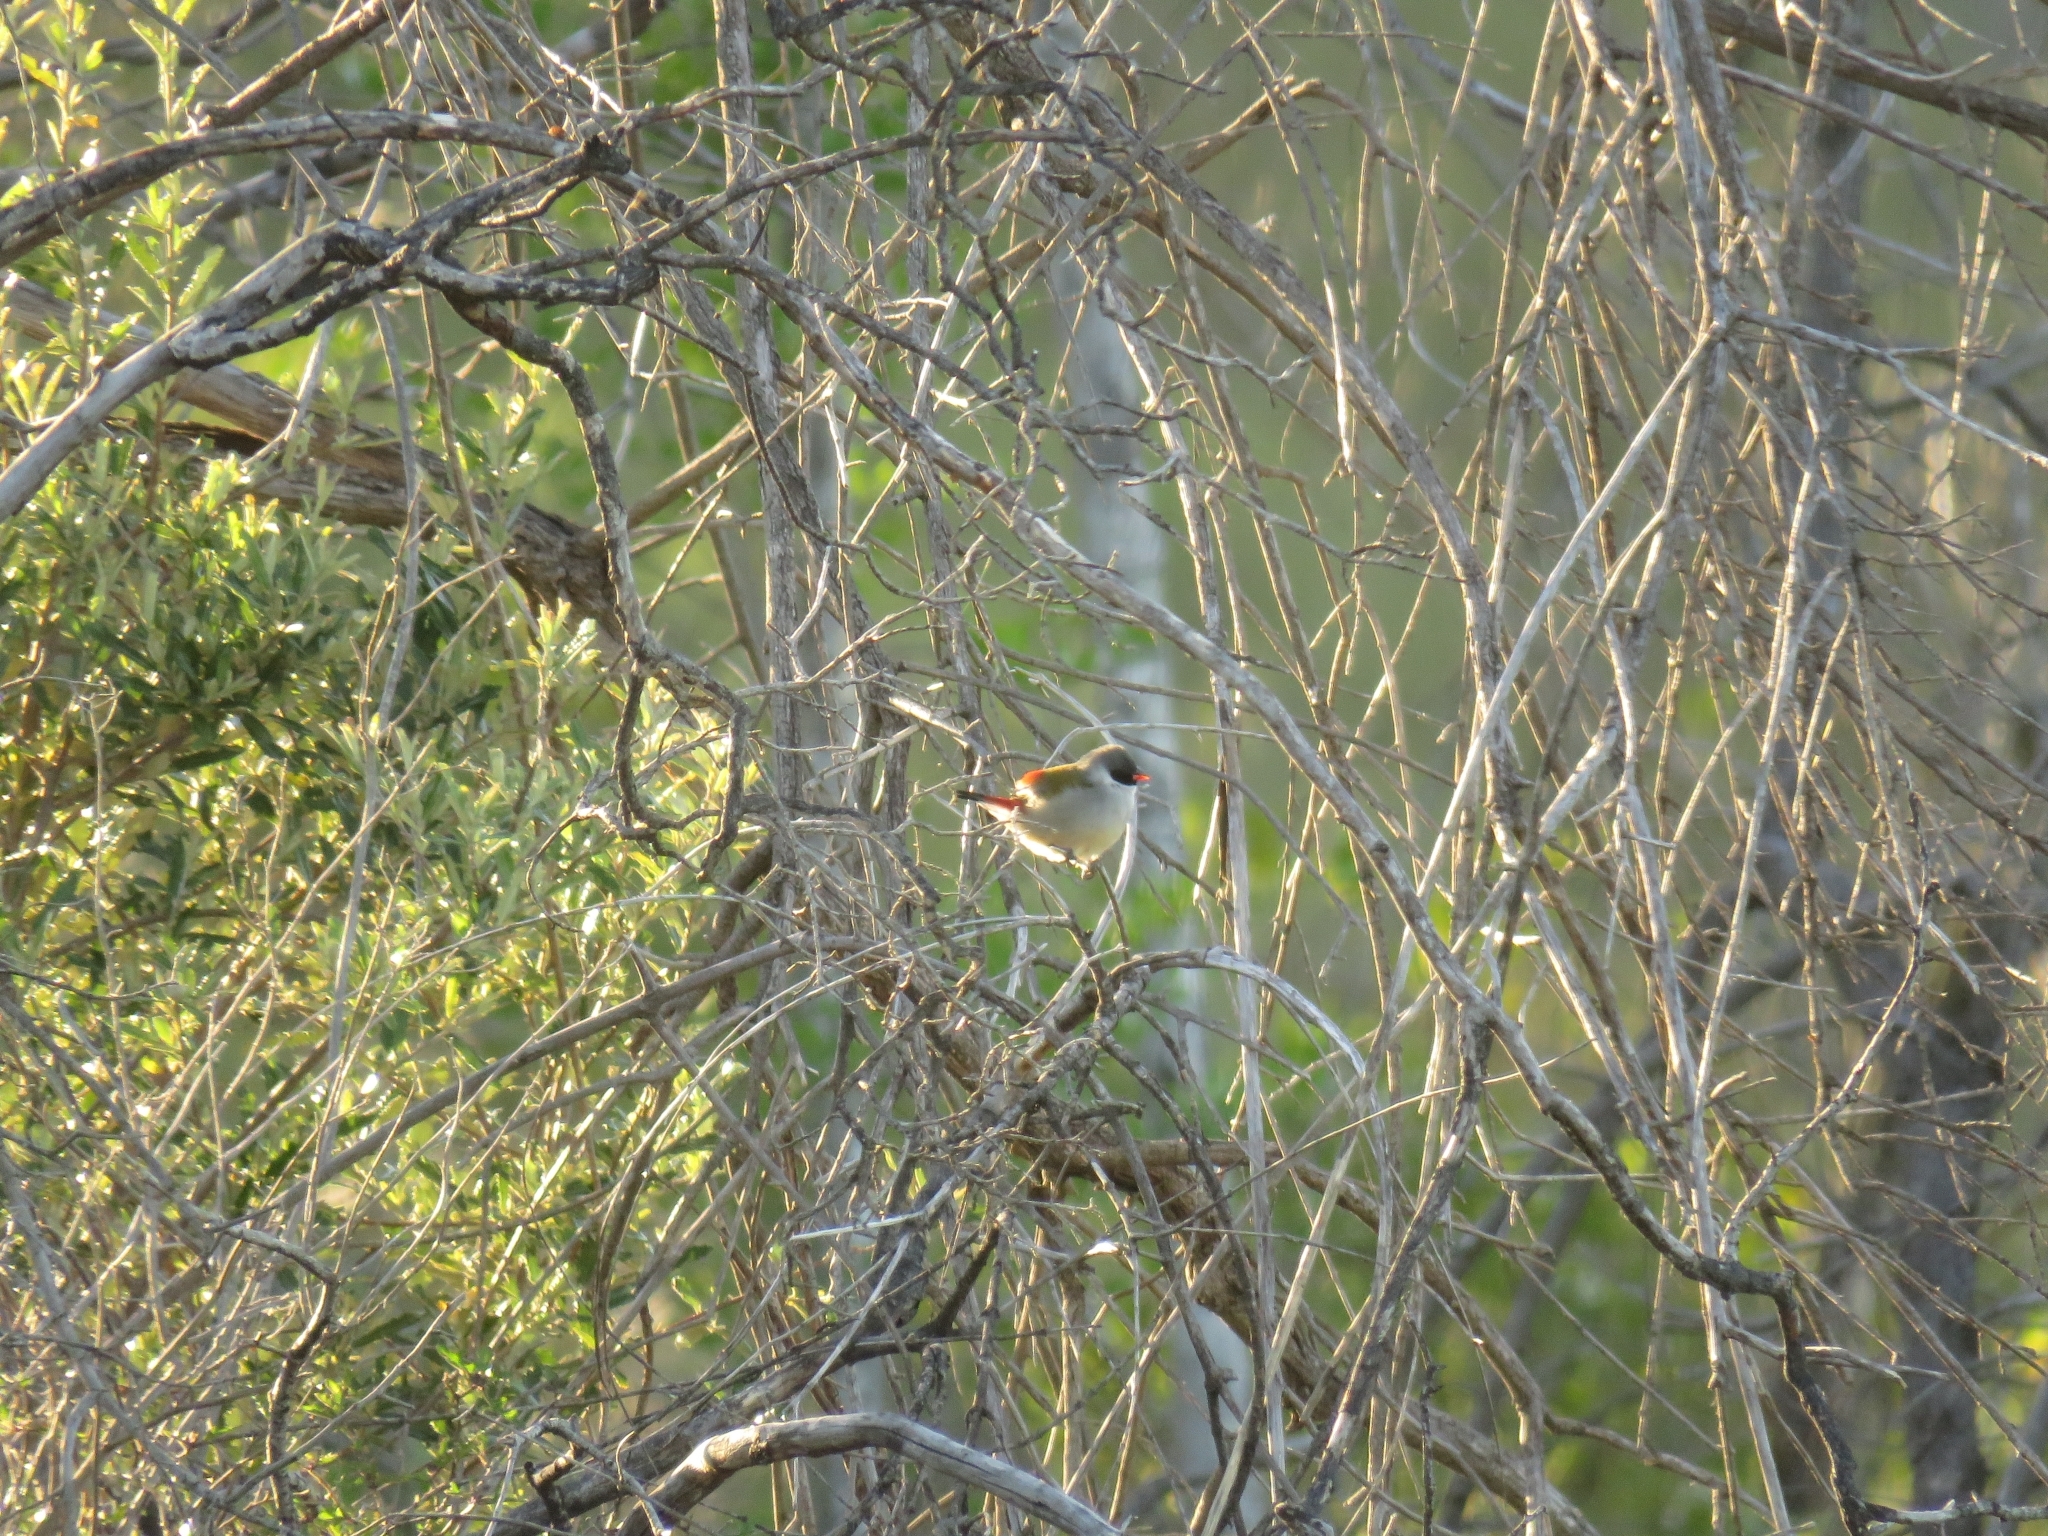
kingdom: Animalia
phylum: Chordata
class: Aves
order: Passeriformes
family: Estrildidae
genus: Coccopygia
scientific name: Coccopygia melanotis
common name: Swee waxbill
